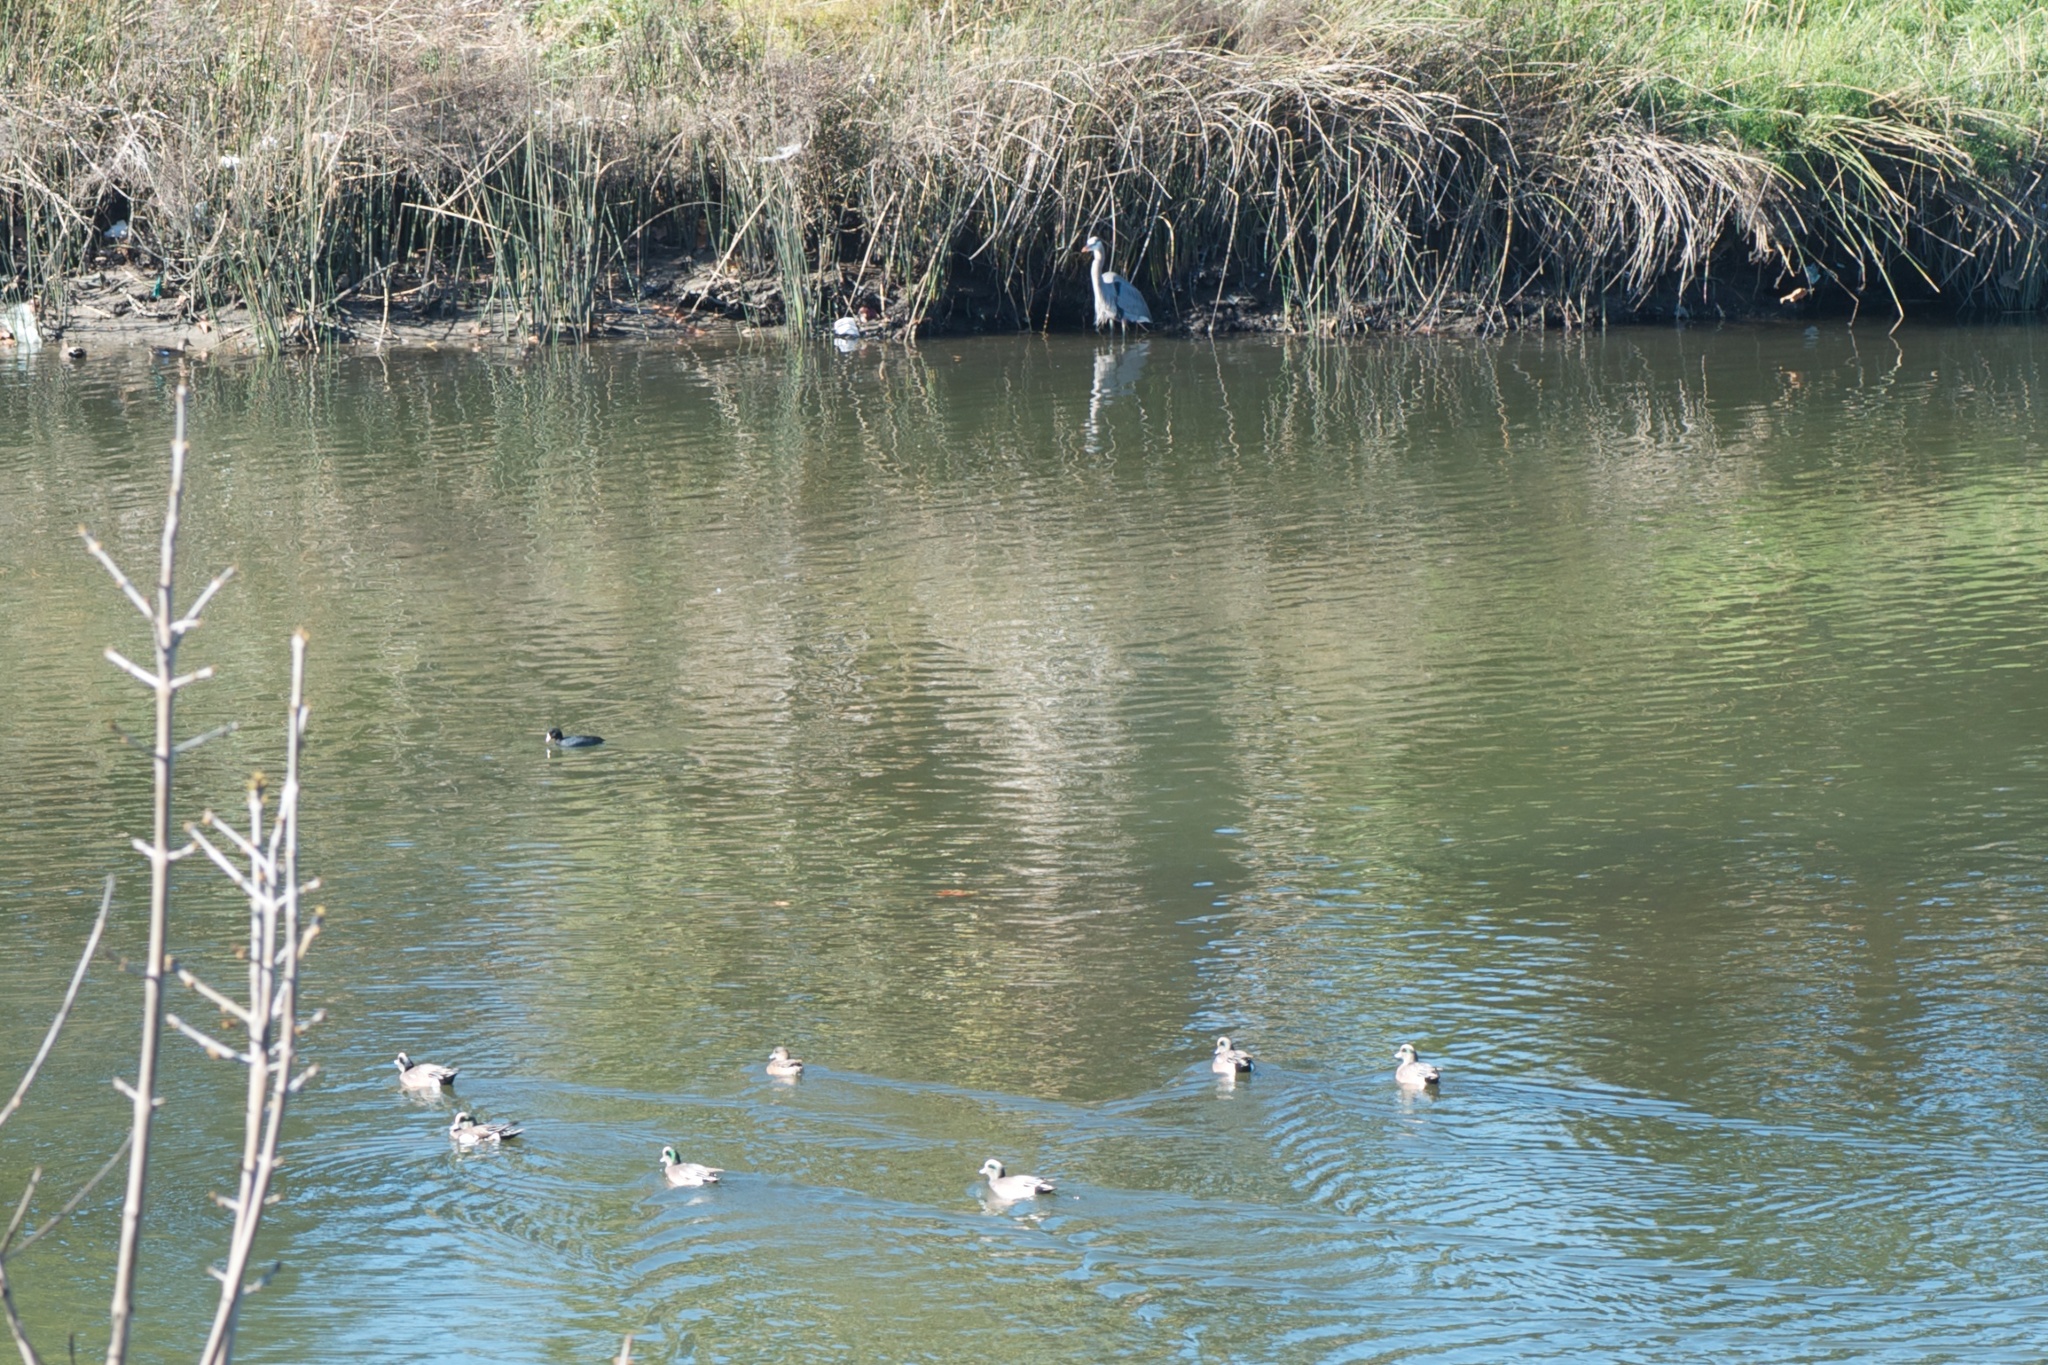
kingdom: Animalia
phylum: Chordata
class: Aves
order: Anseriformes
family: Anatidae
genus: Mareca
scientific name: Mareca americana
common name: American wigeon
